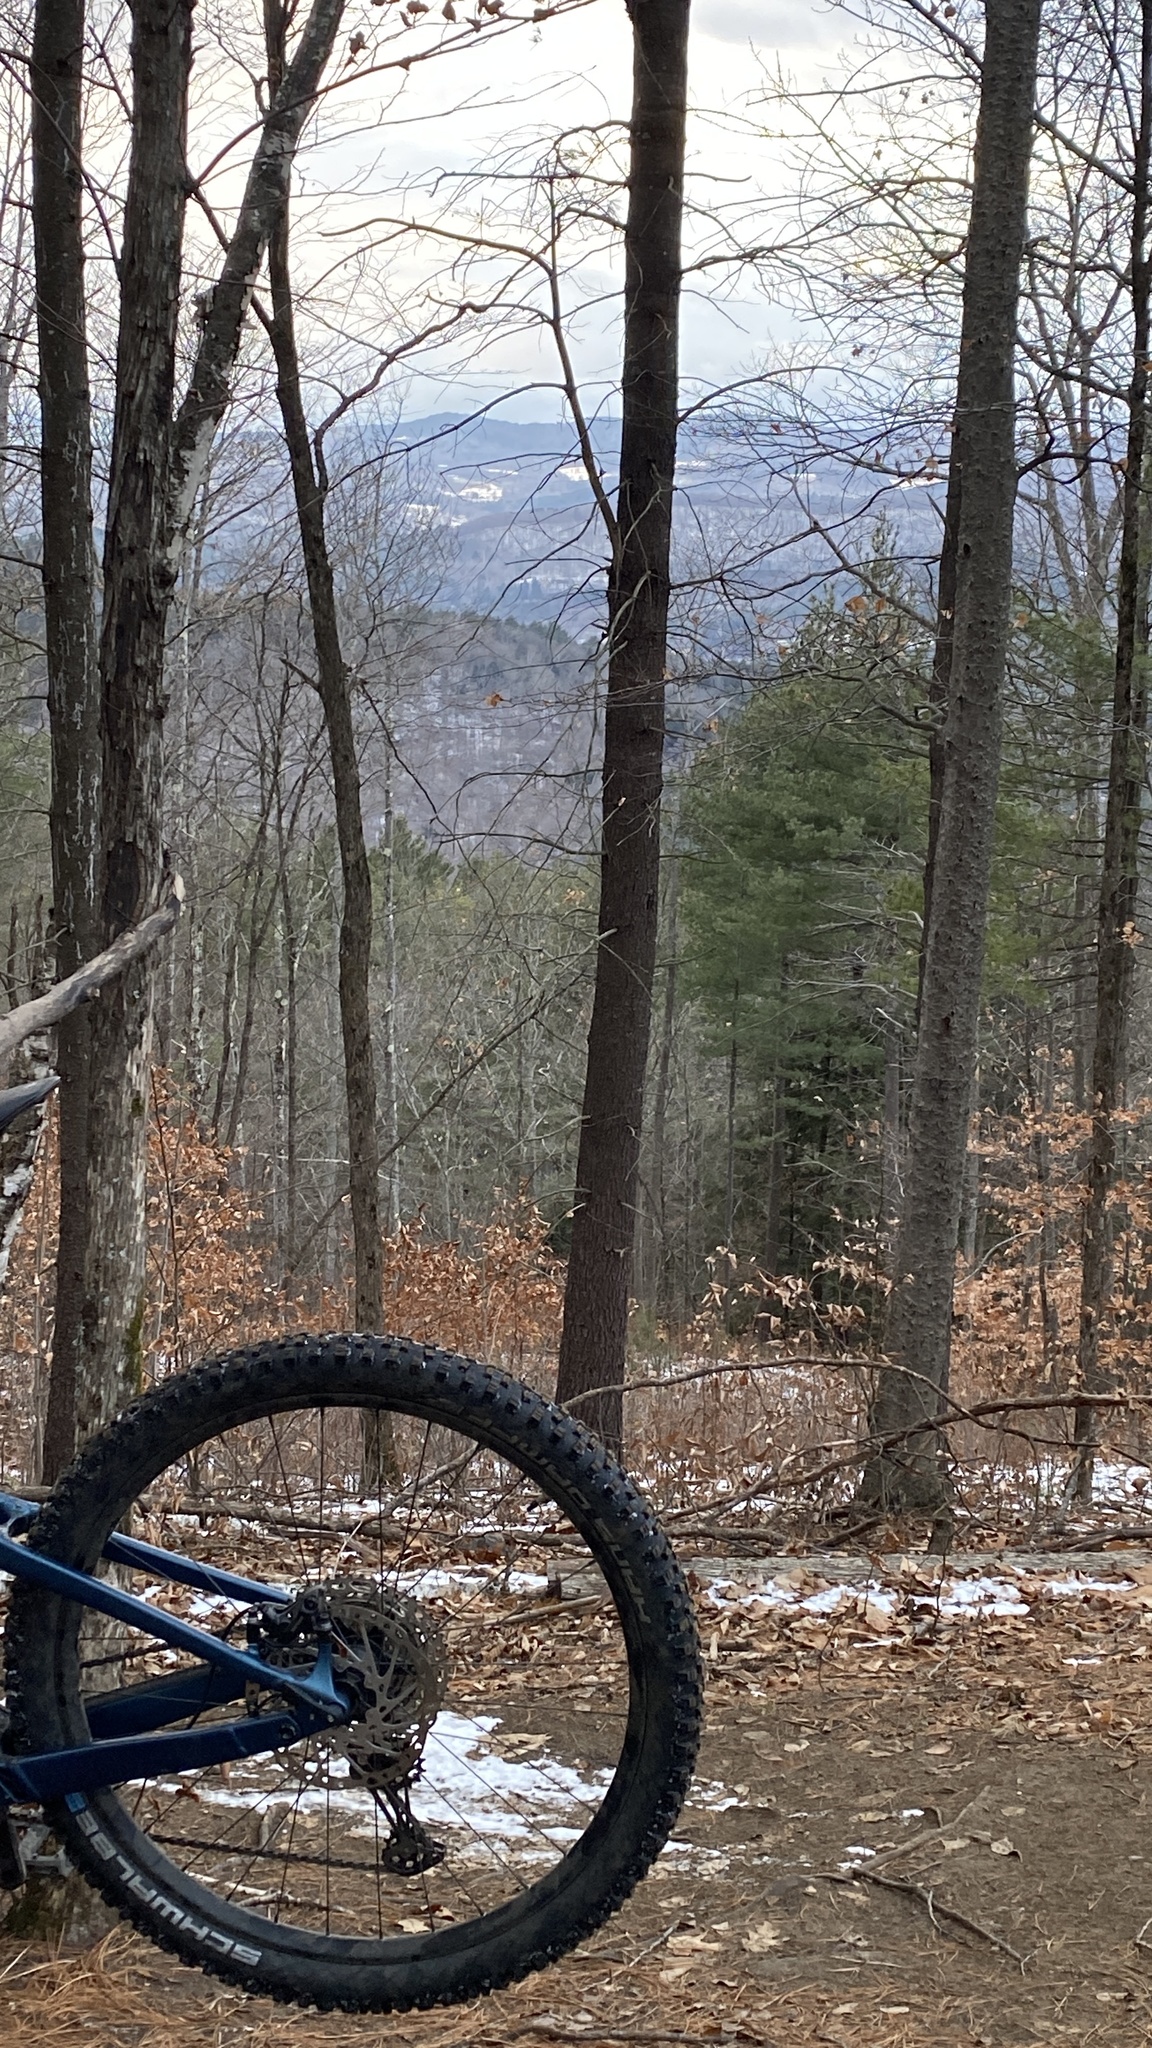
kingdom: Plantae
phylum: Tracheophyta
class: Pinopsida
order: Pinales
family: Pinaceae
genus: Pinus
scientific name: Pinus strobus
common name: Weymouth pine
